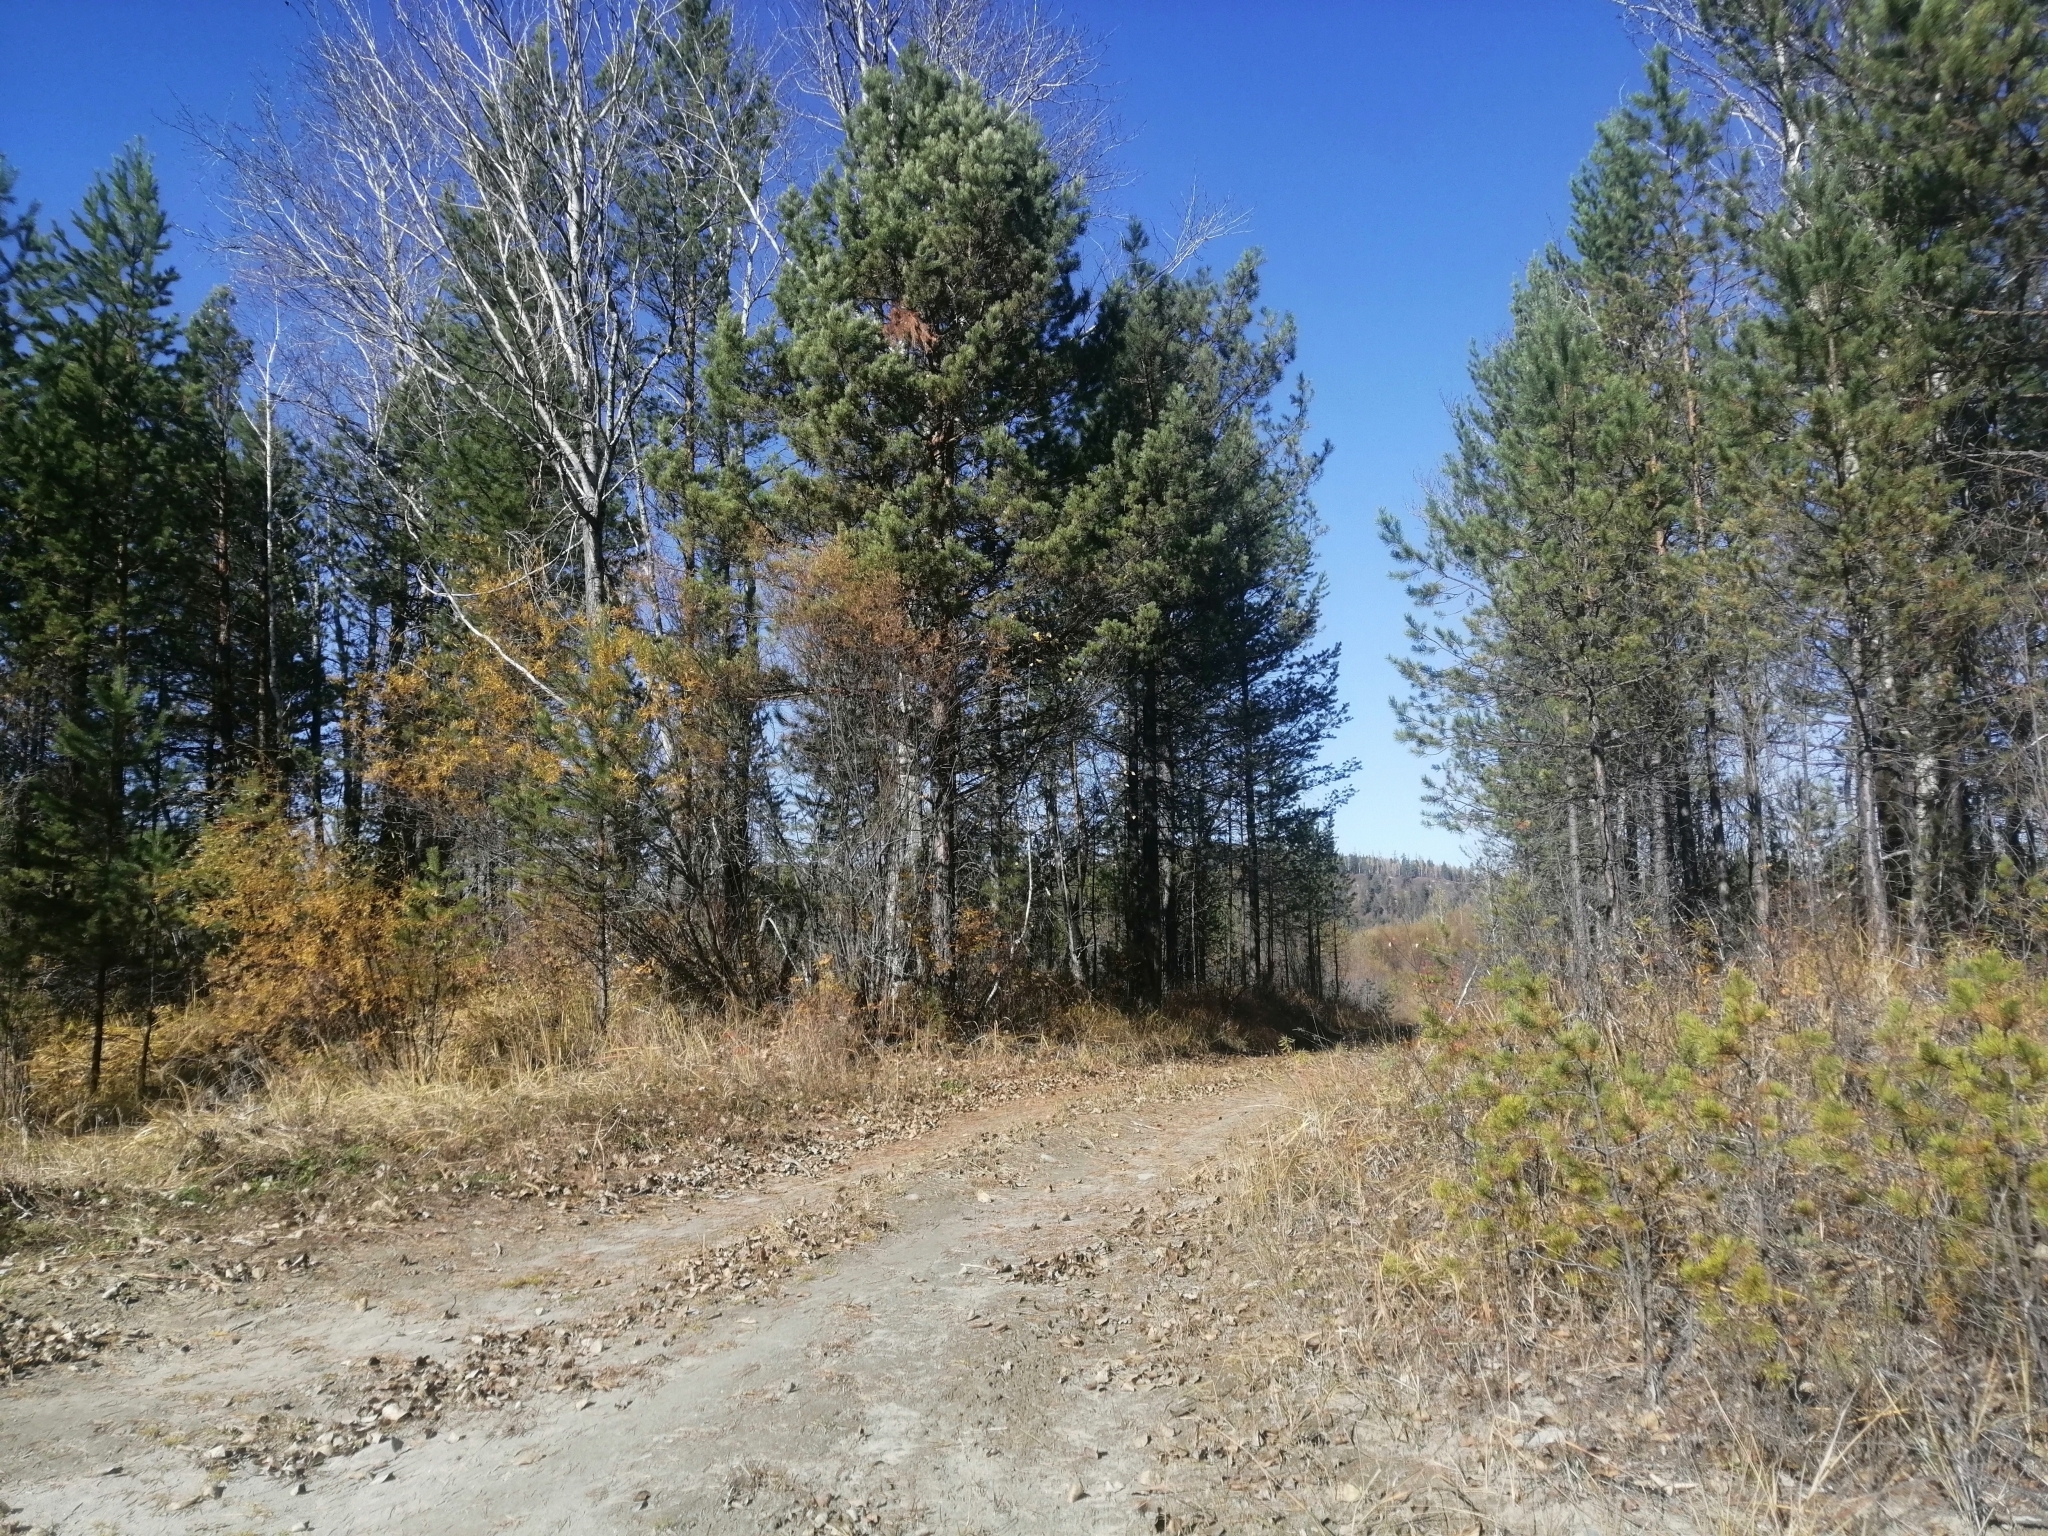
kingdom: Plantae
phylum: Tracheophyta
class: Pinopsida
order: Pinales
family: Pinaceae
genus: Pinus
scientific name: Pinus sylvestris
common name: Scots pine
